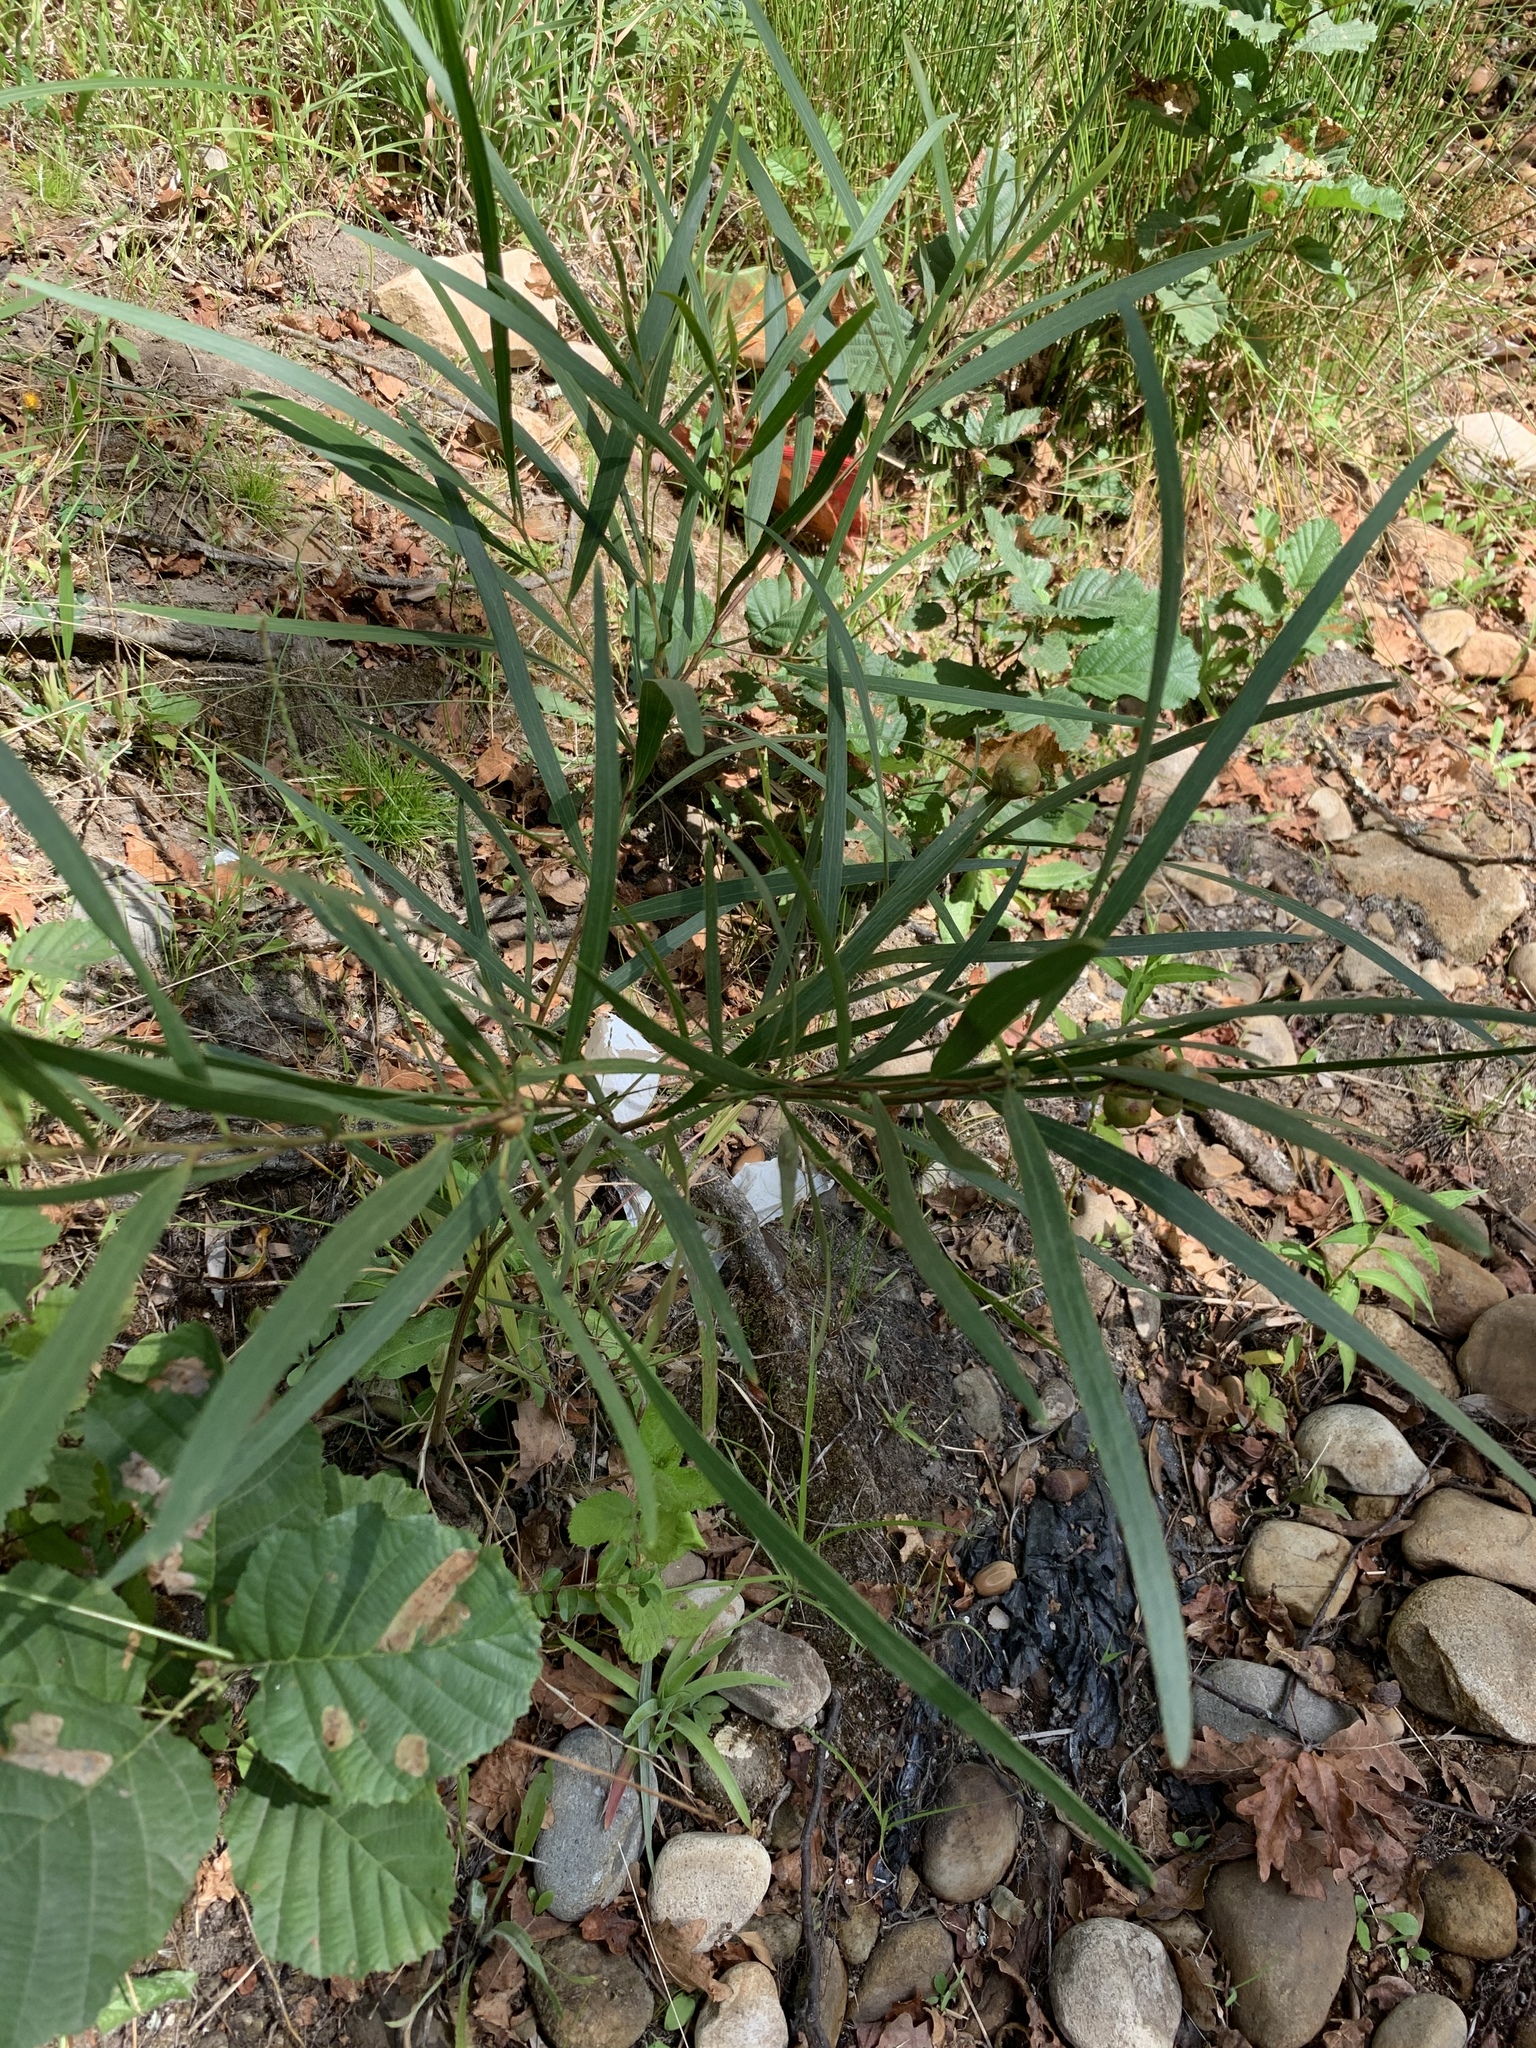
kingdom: Plantae
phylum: Tracheophyta
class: Magnoliopsida
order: Fabales
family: Fabaceae
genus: Acacia
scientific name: Acacia longifolia
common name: Sydney golden wattle
